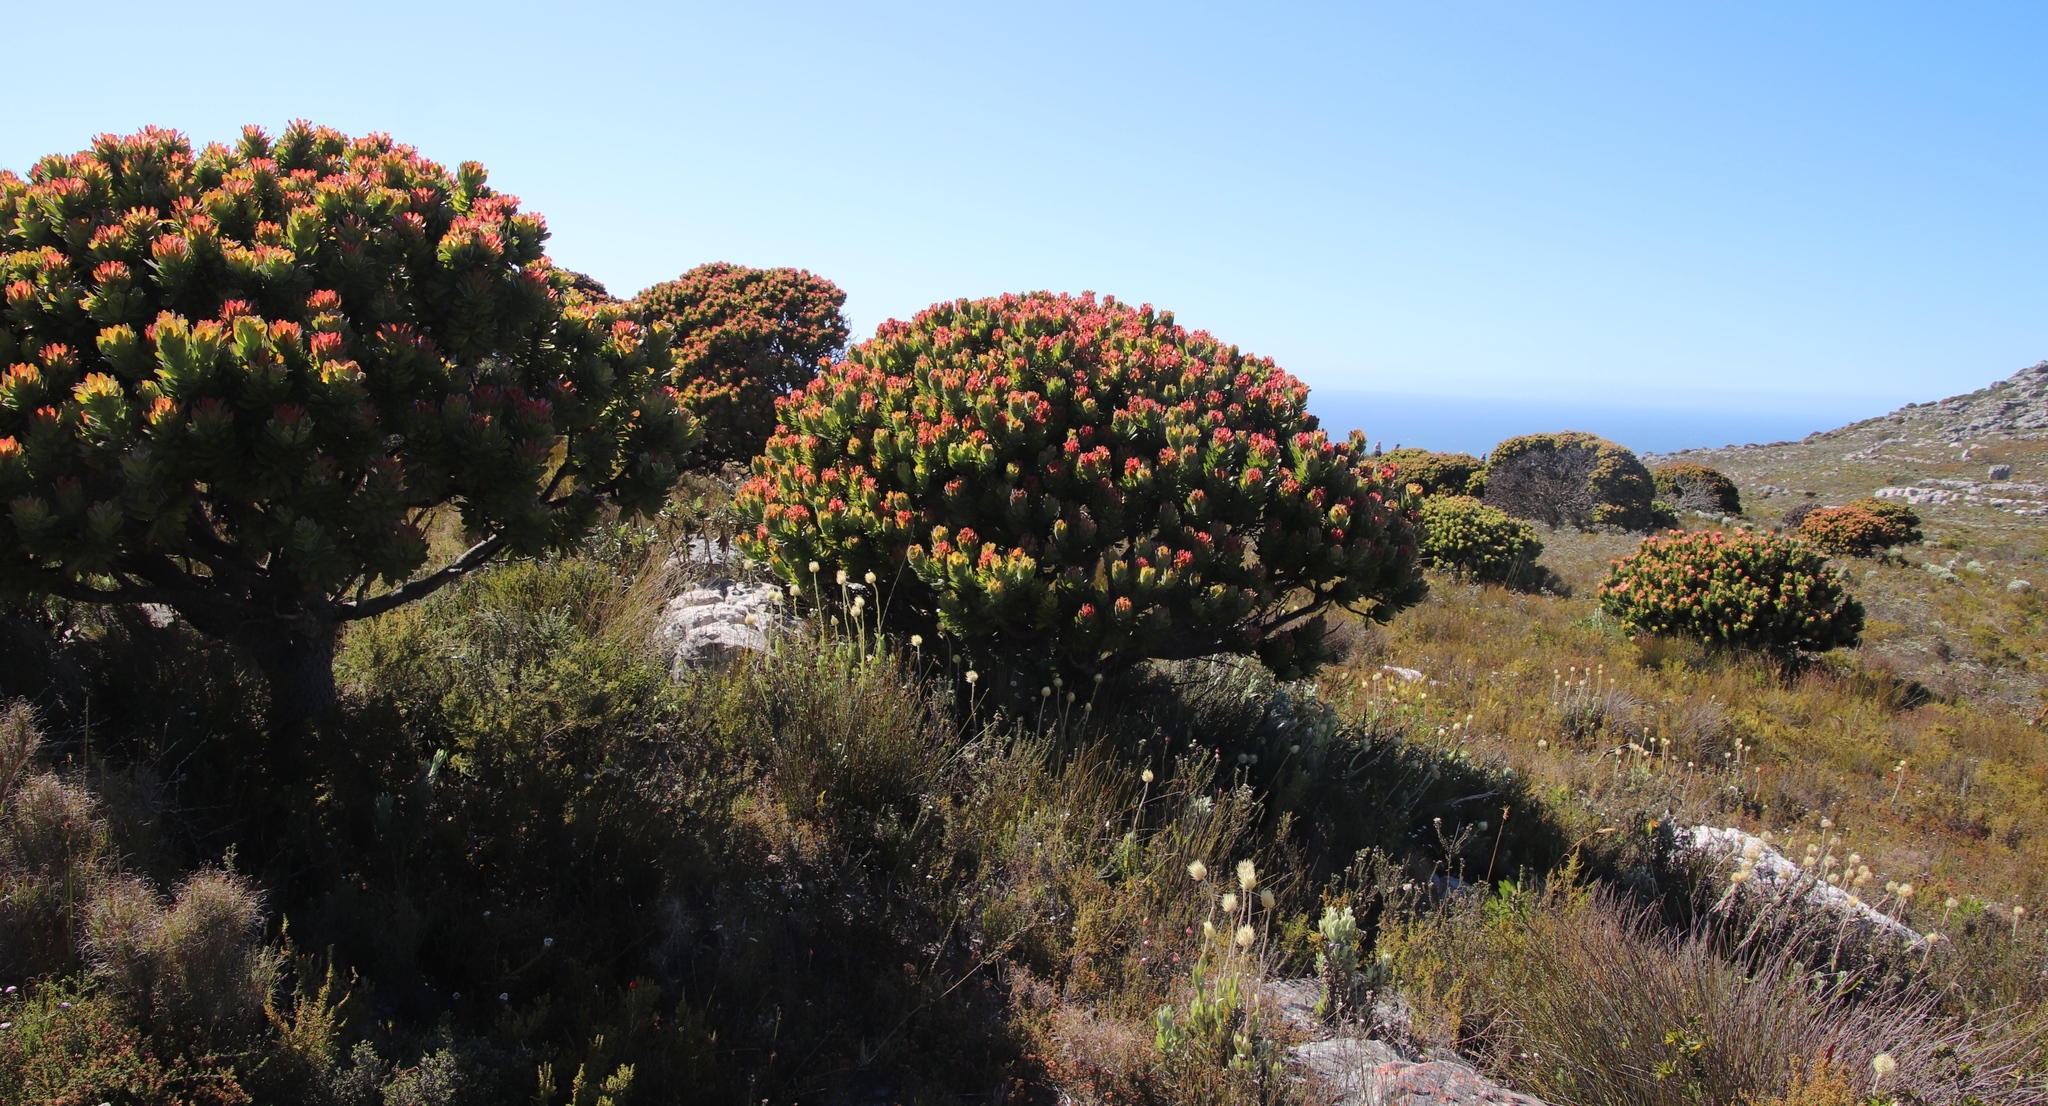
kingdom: Plantae
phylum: Tracheophyta
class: Magnoliopsida
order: Proteales
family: Proteaceae
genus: Mimetes
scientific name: Mimetes fimbriifolius
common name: Fringed bottlebrush
